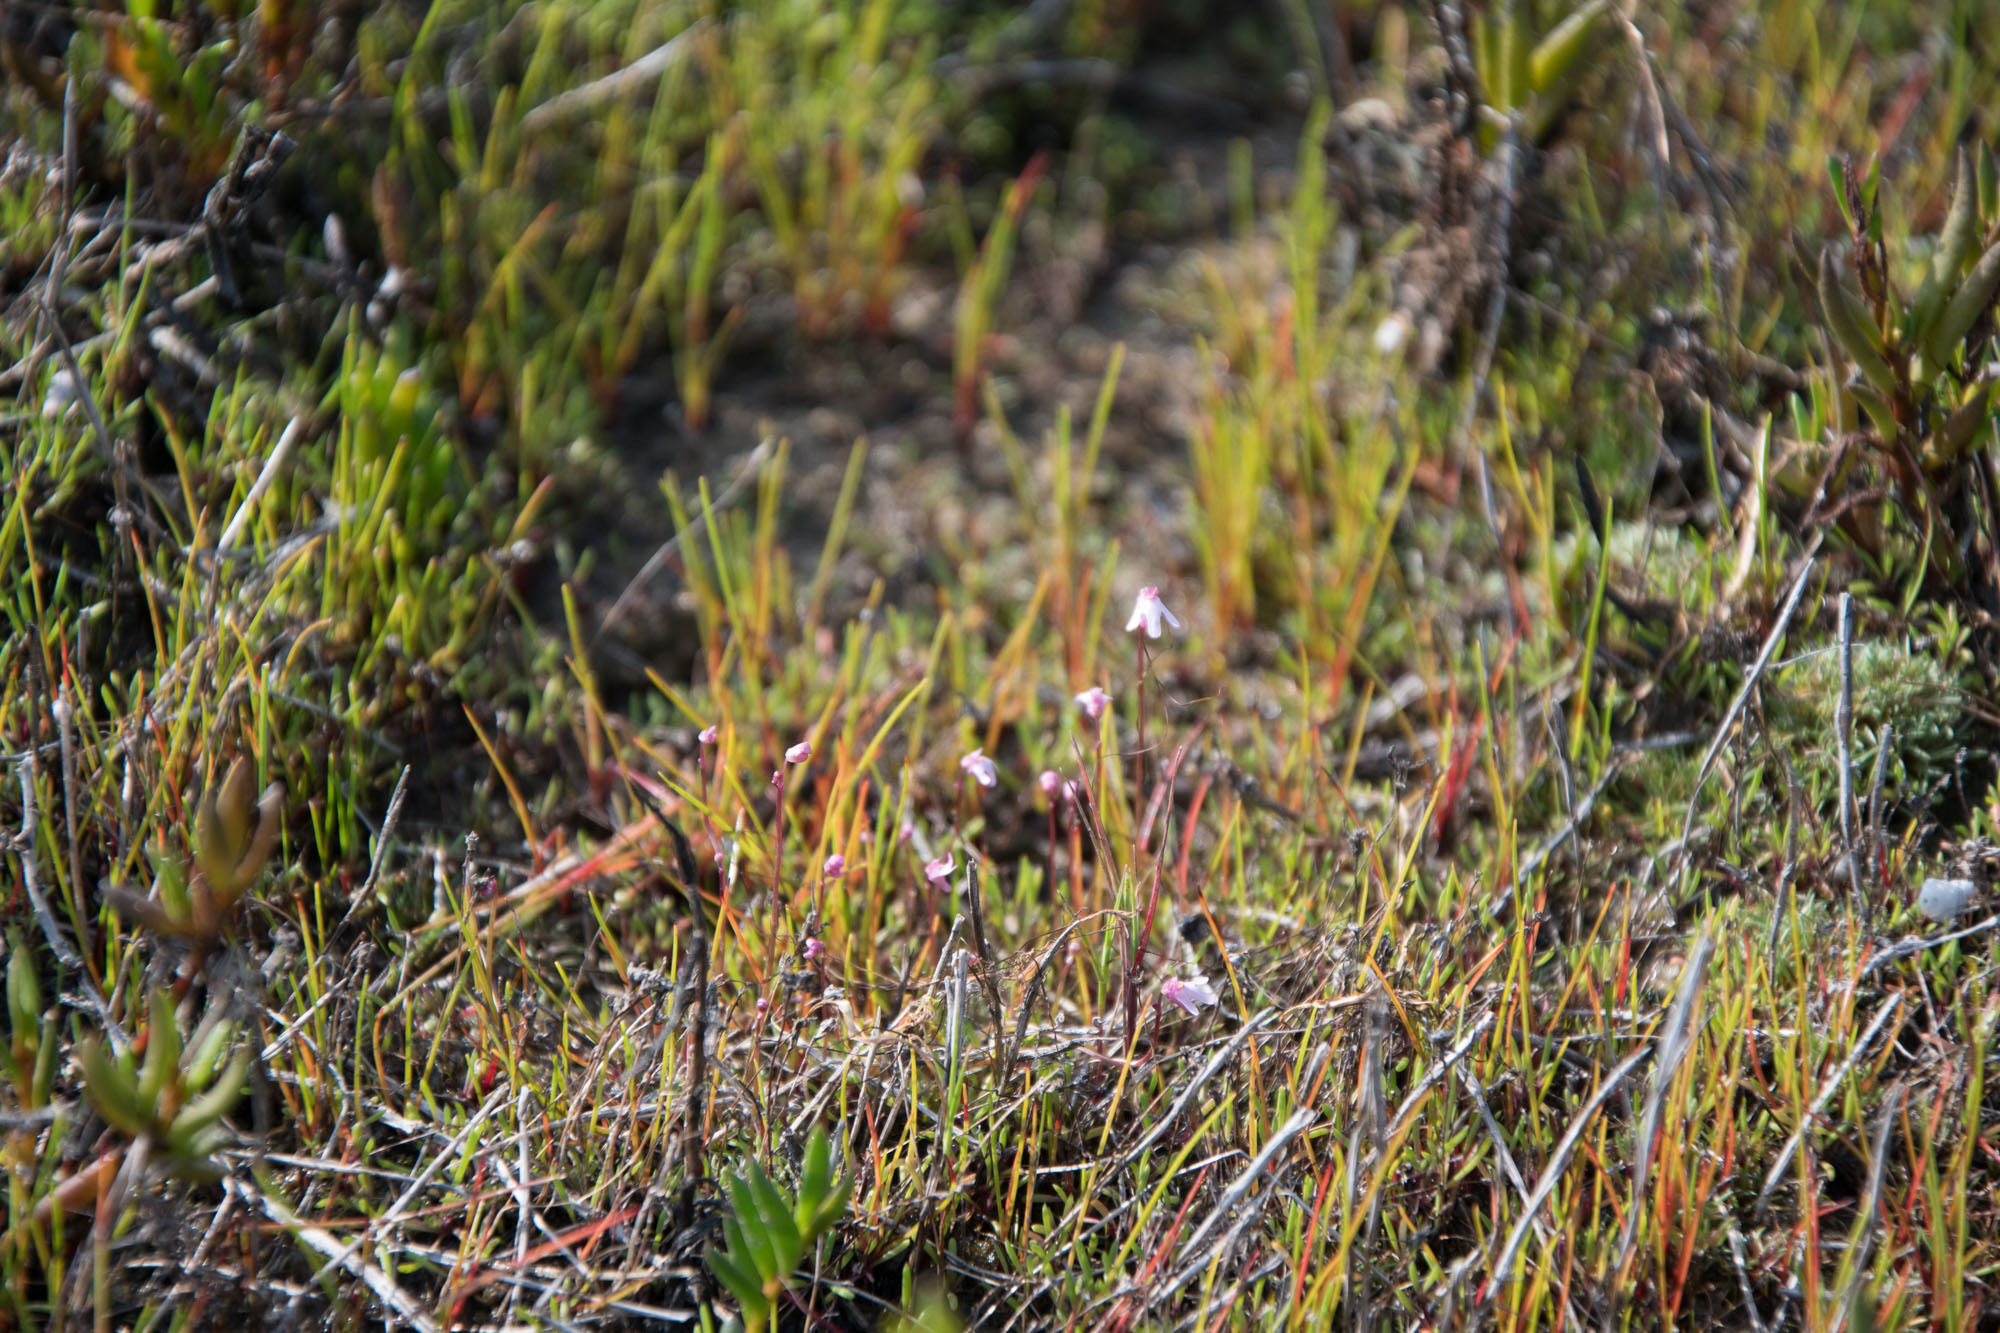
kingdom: Plantae
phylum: Tracheophyta
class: Magnoliopsida
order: Lamiales
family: Lentibulariaceae
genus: Utricularia
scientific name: Utricularia tenella
